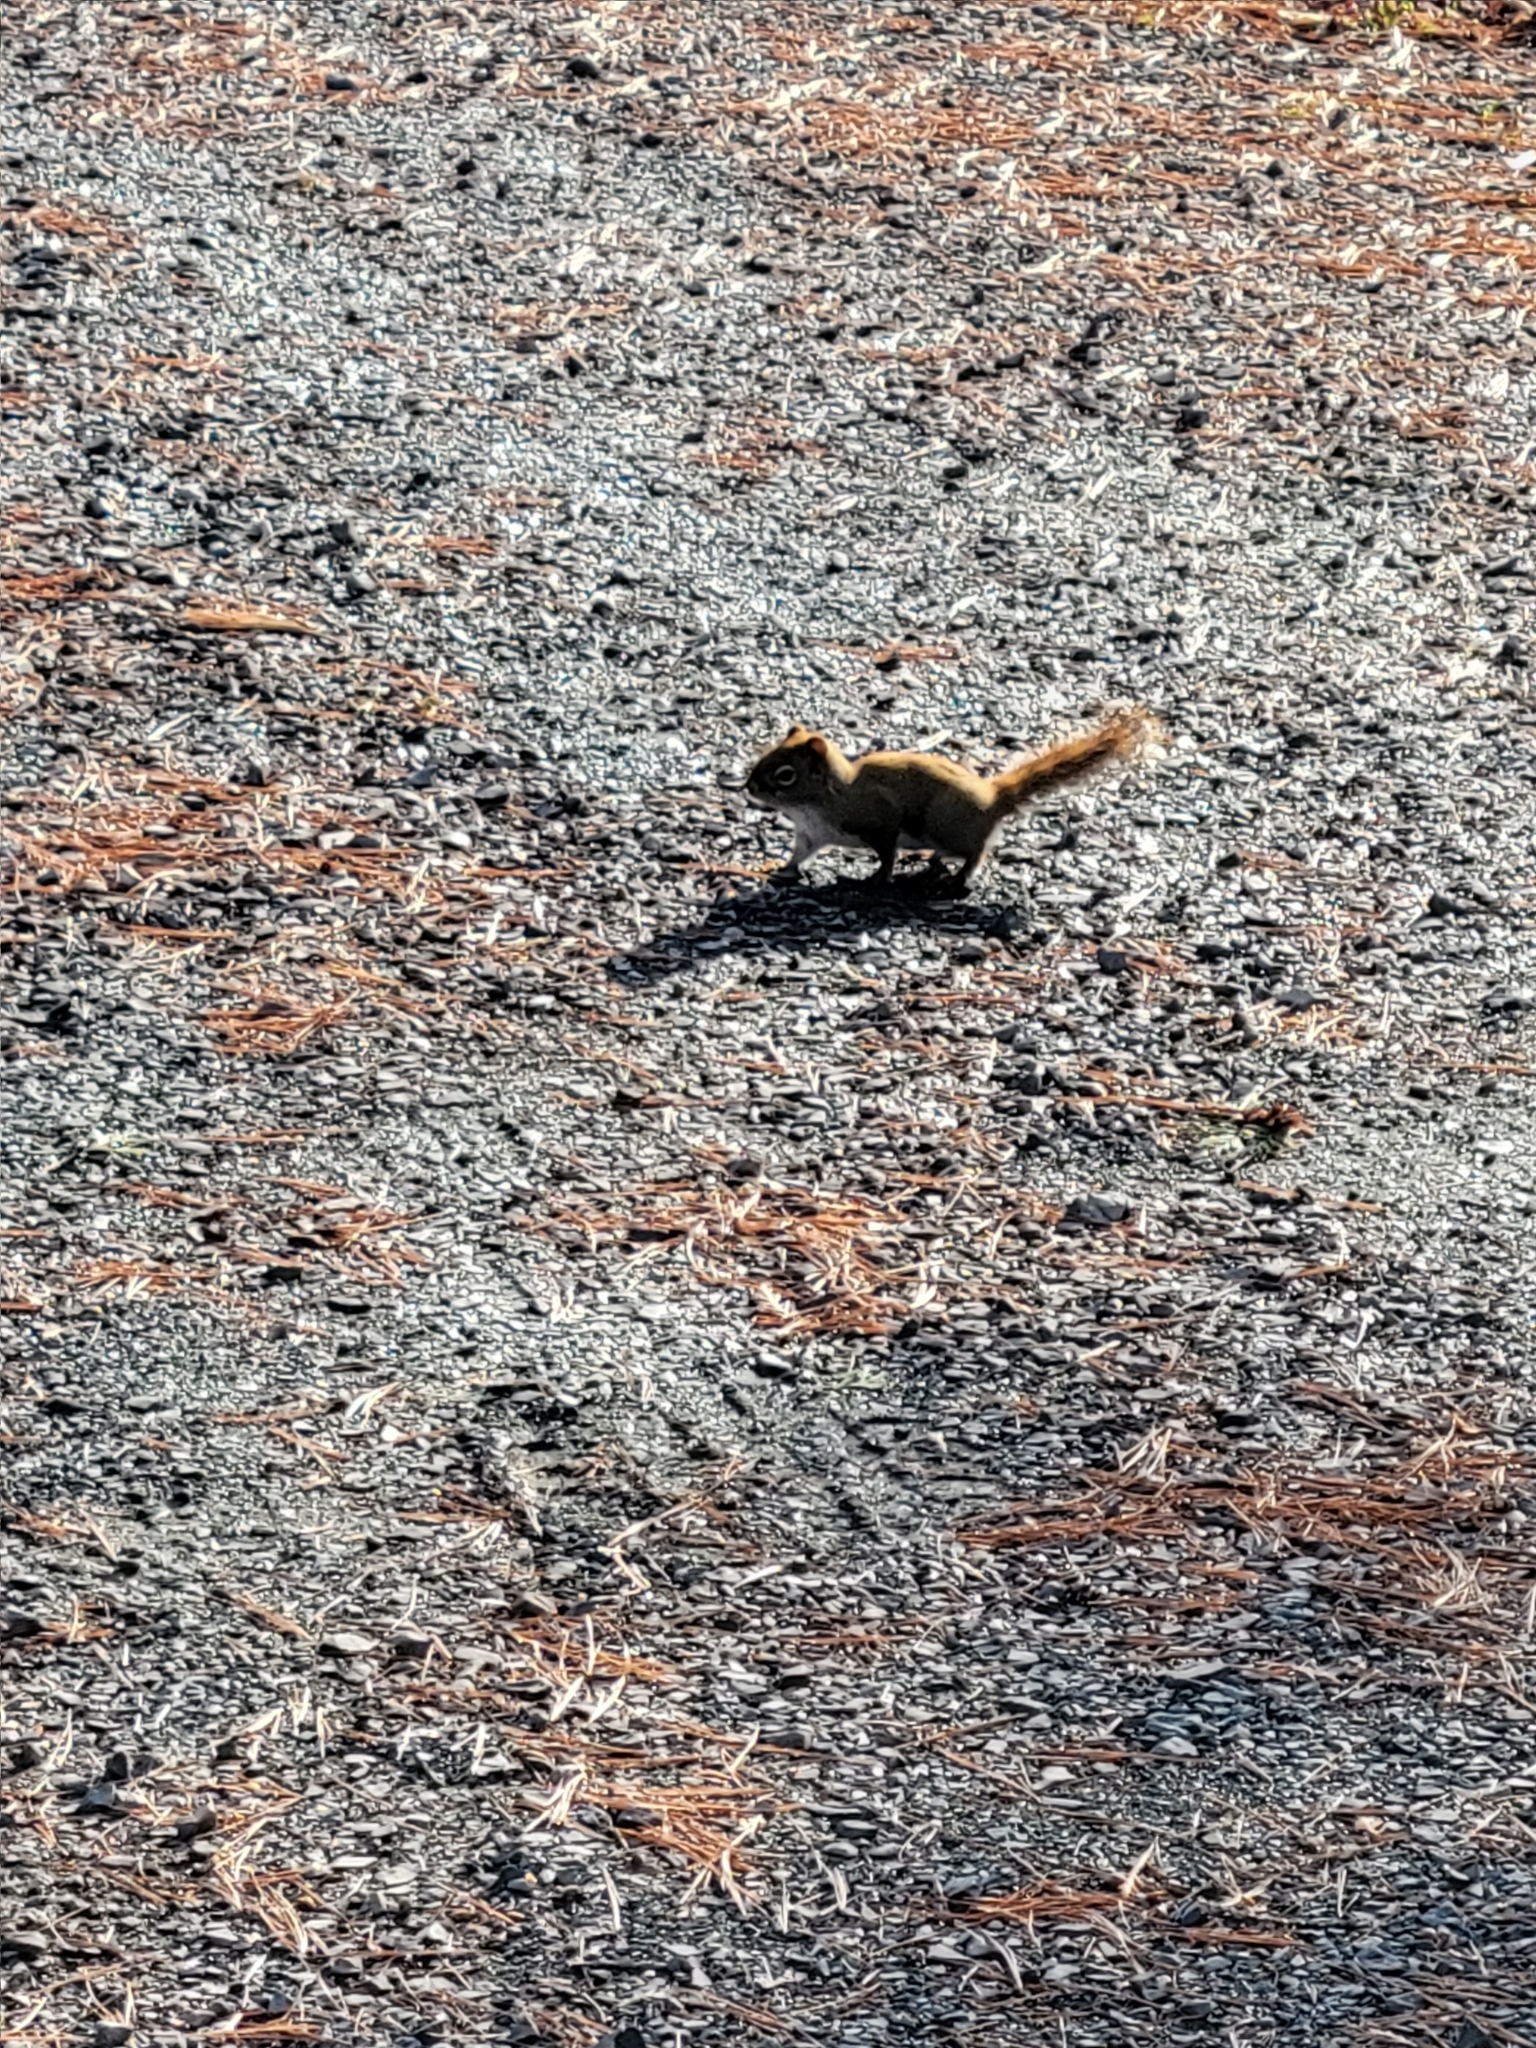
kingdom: Animalia
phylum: Chordata
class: Mammalia
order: Rodentia
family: Sciuridae
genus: Tamiasciurus
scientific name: Tamiasciurus hudsonicus
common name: Red squirrel
